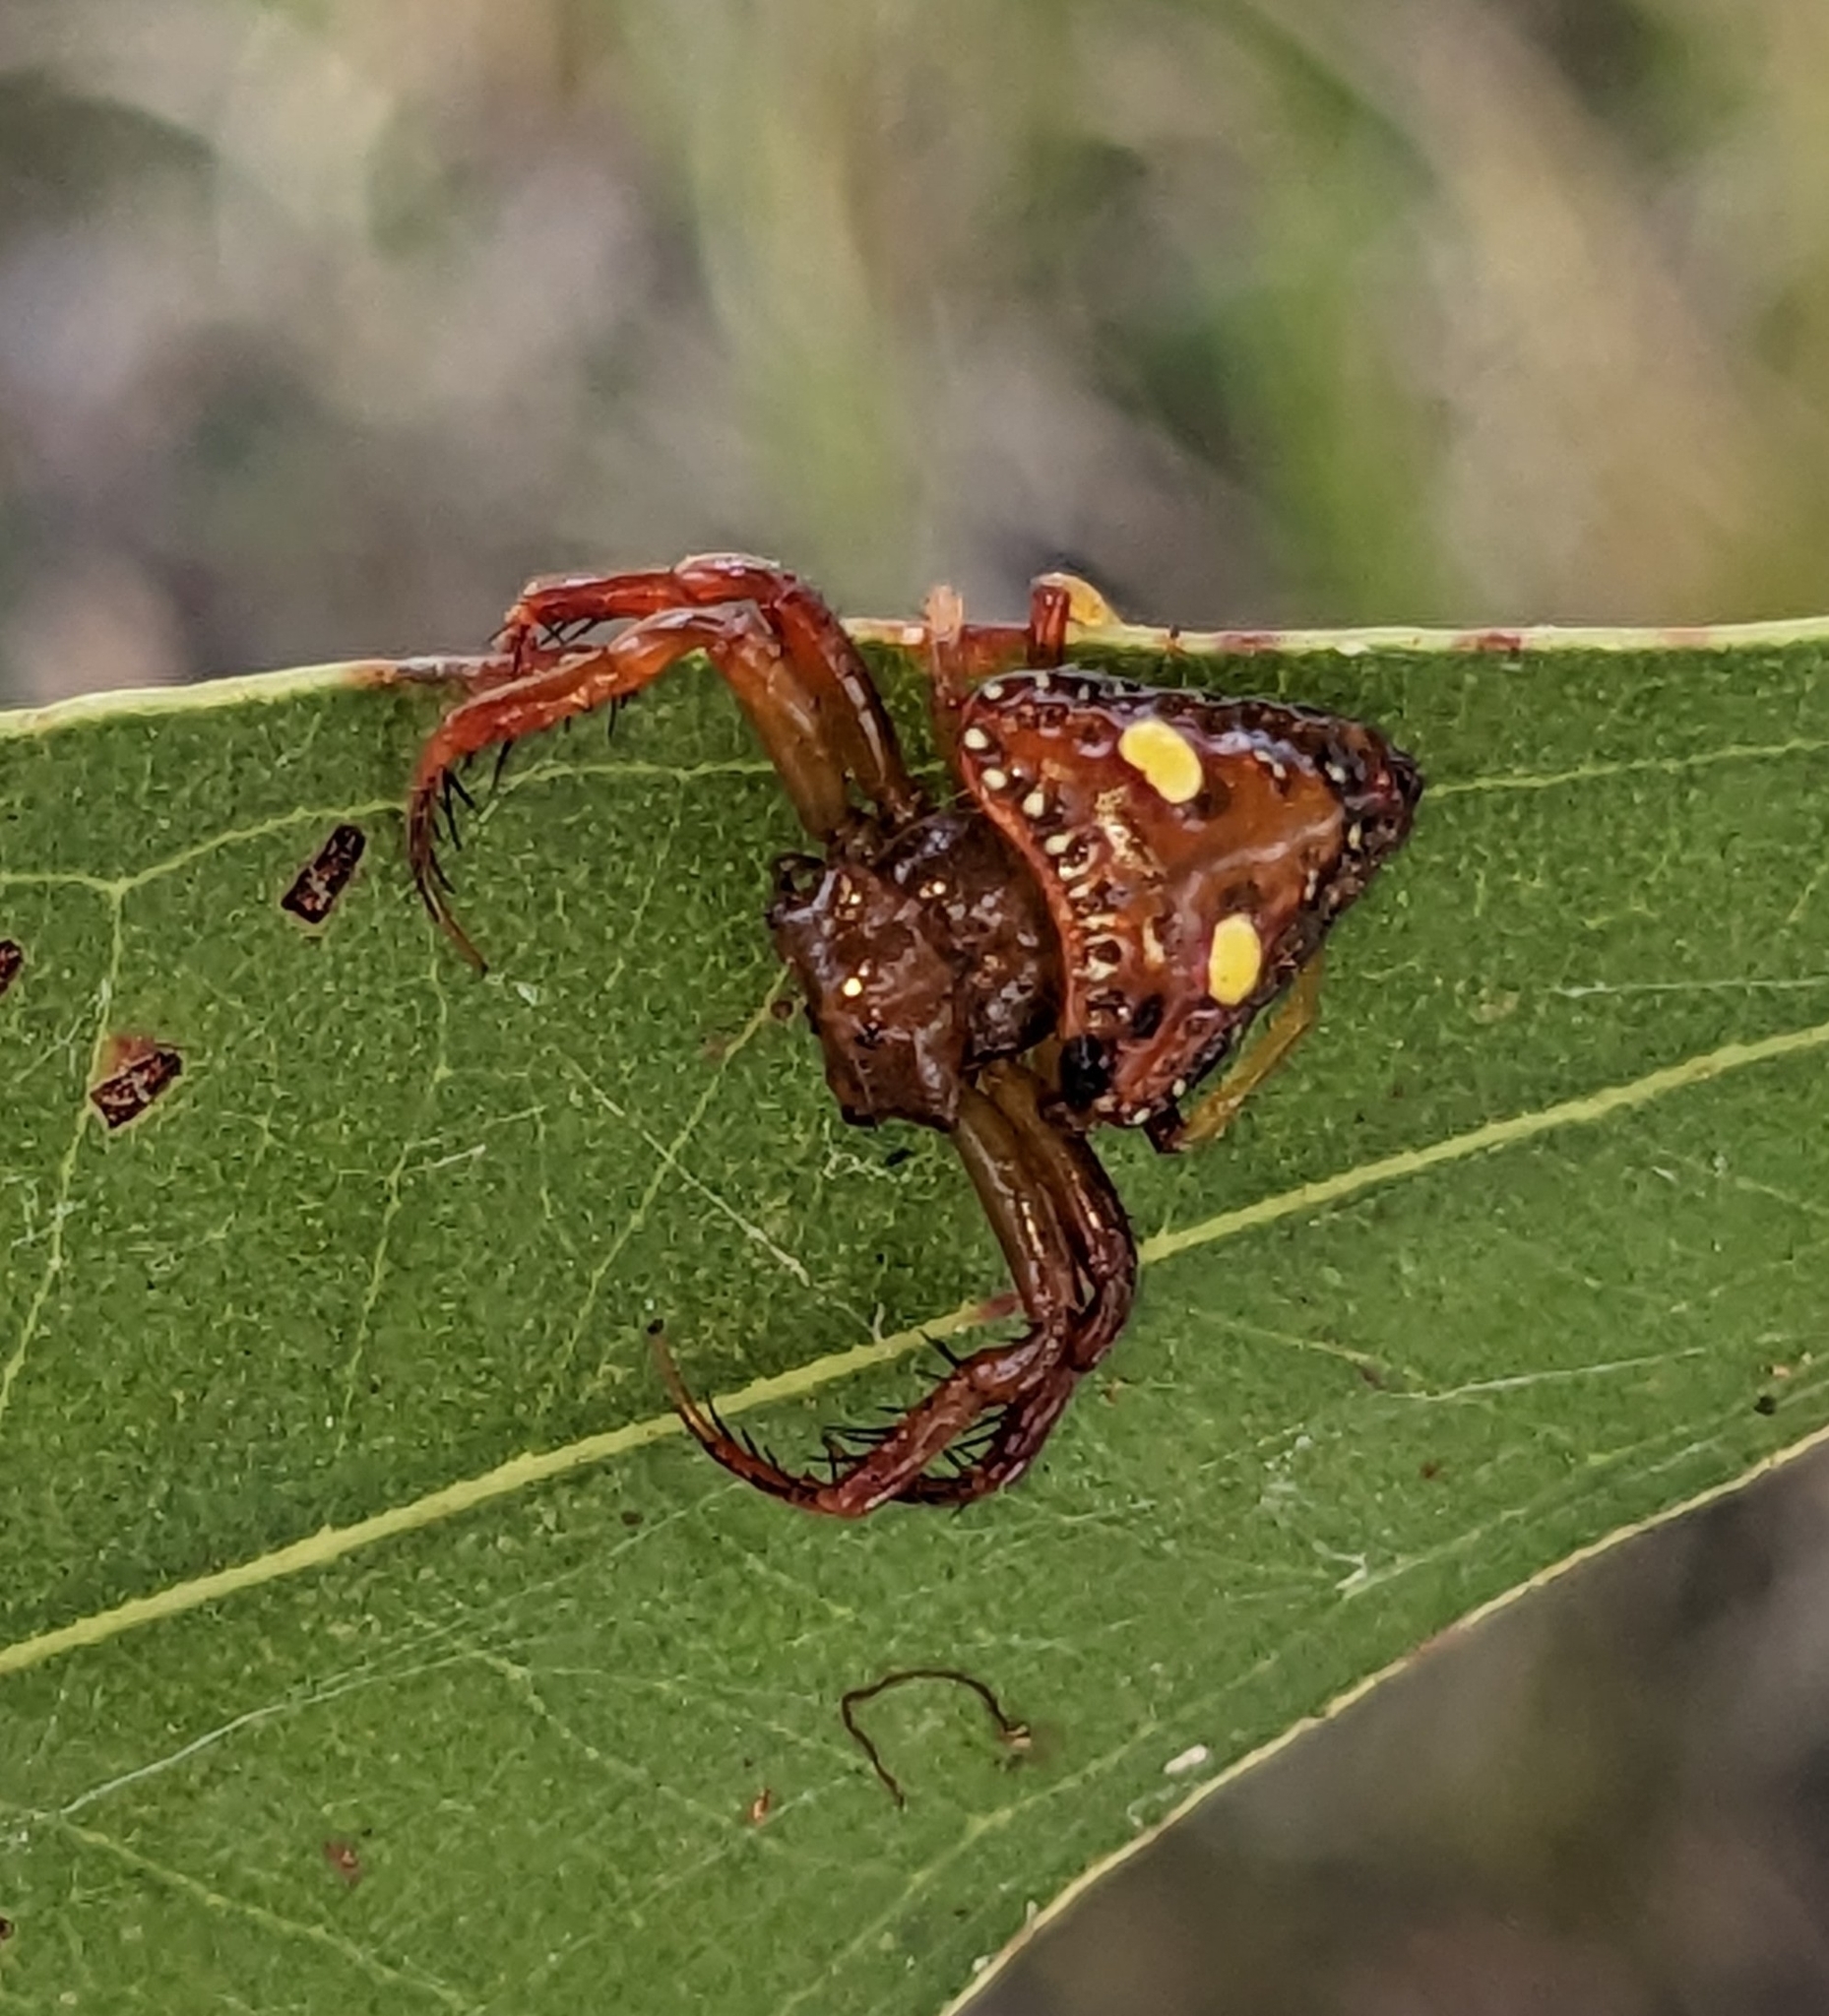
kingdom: Animalia
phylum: Arthropoda
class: Arachnida
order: Araneae
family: Arkyidae
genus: Arkys
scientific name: Arkys lancearius
